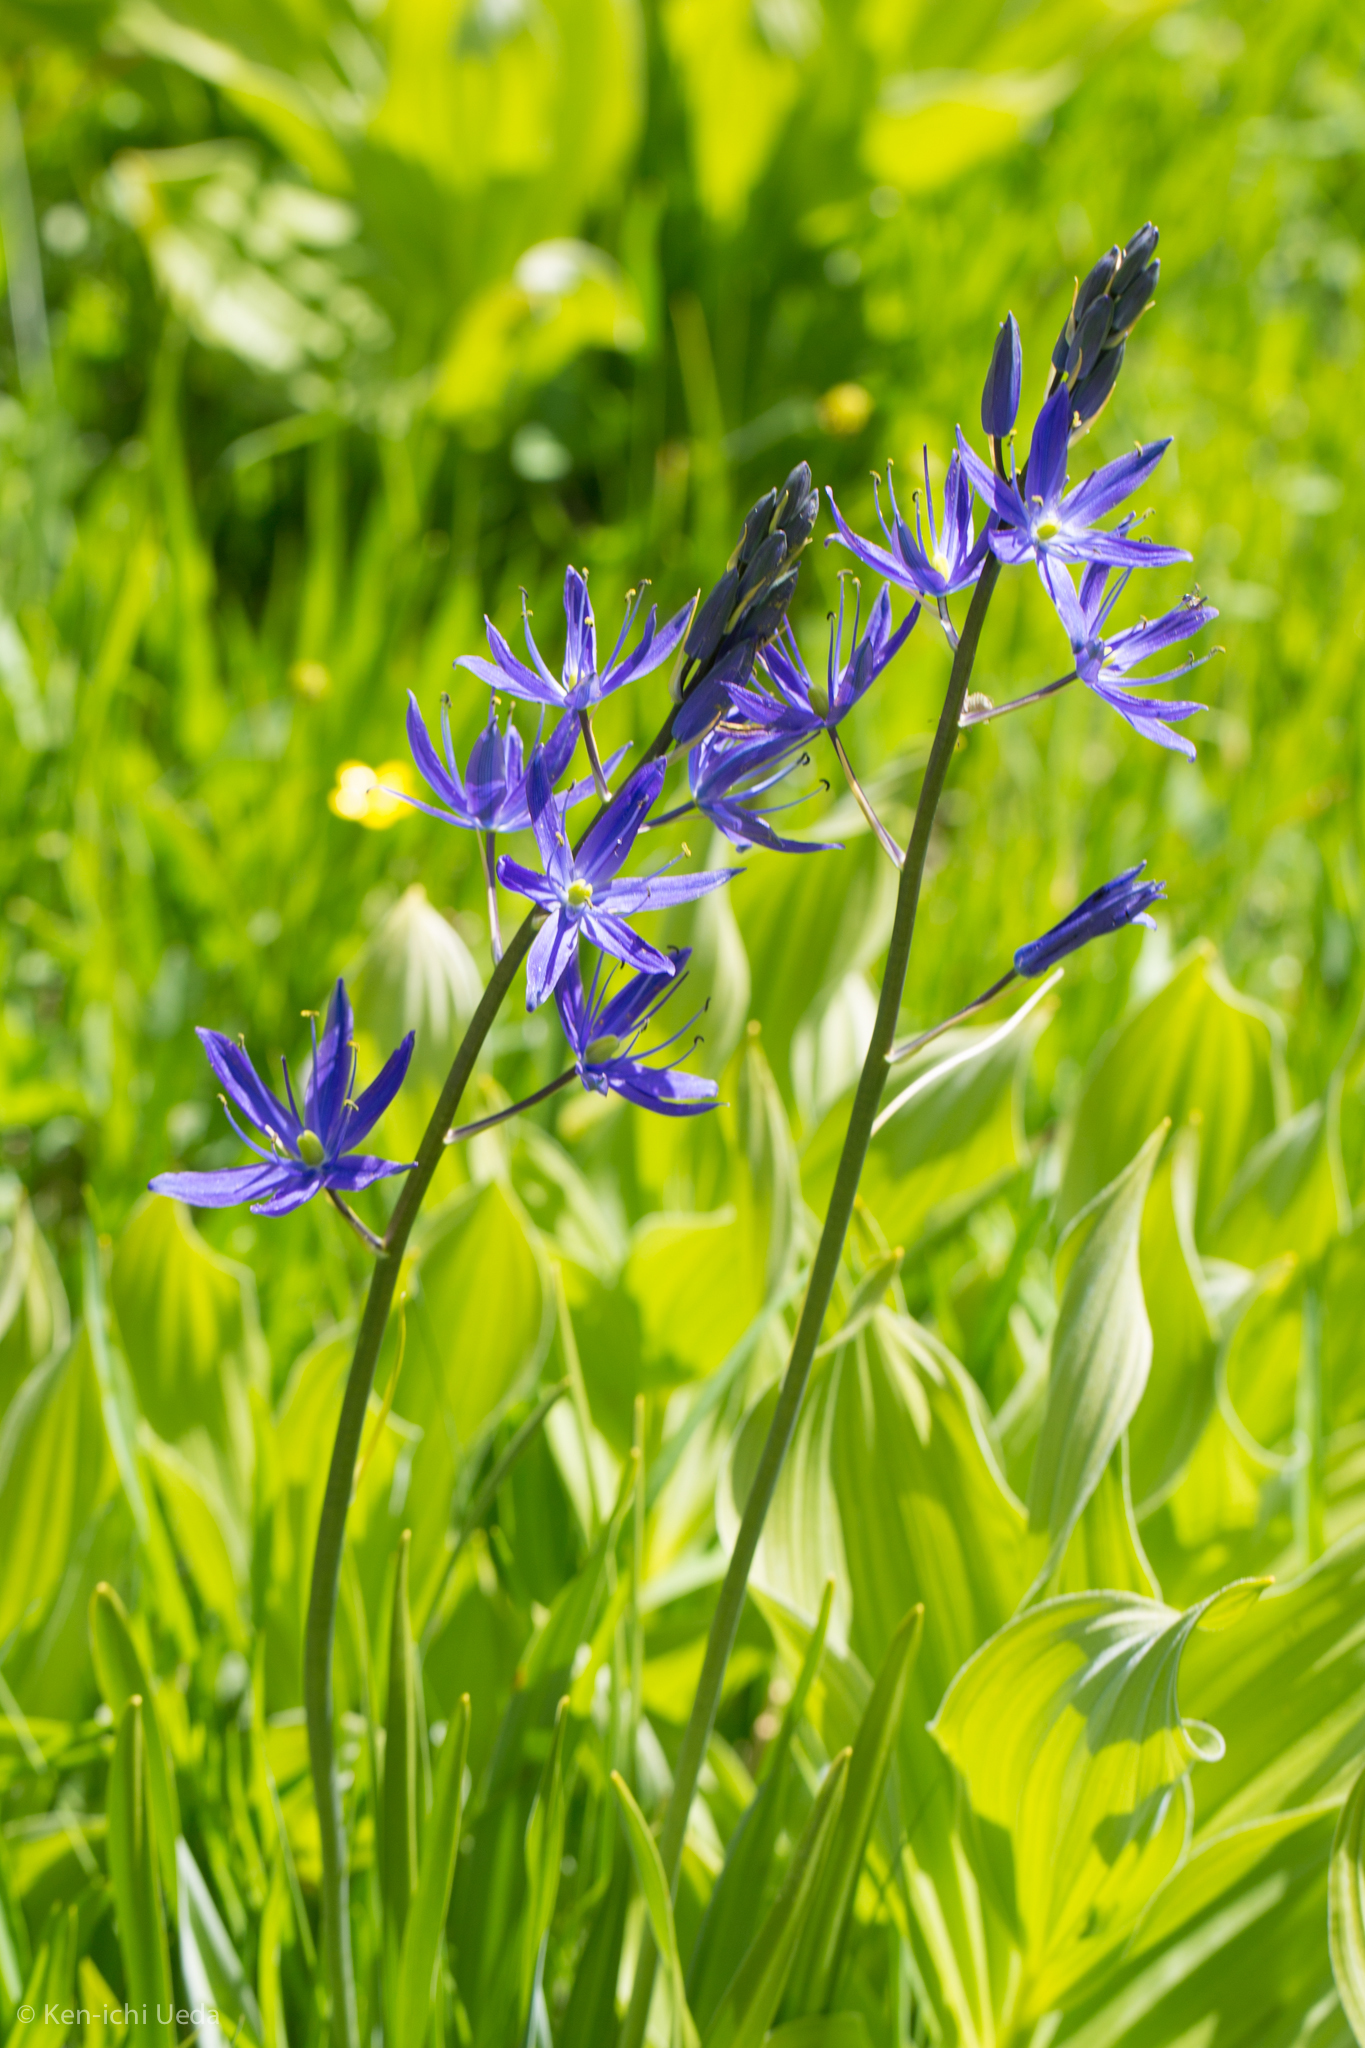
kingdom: Plantae
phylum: Tracheophyta
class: Liliopsida
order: Asparagales
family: Asparagaceae
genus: Camassia
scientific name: Camassia leichtlinii
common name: Leichtlin's camas
